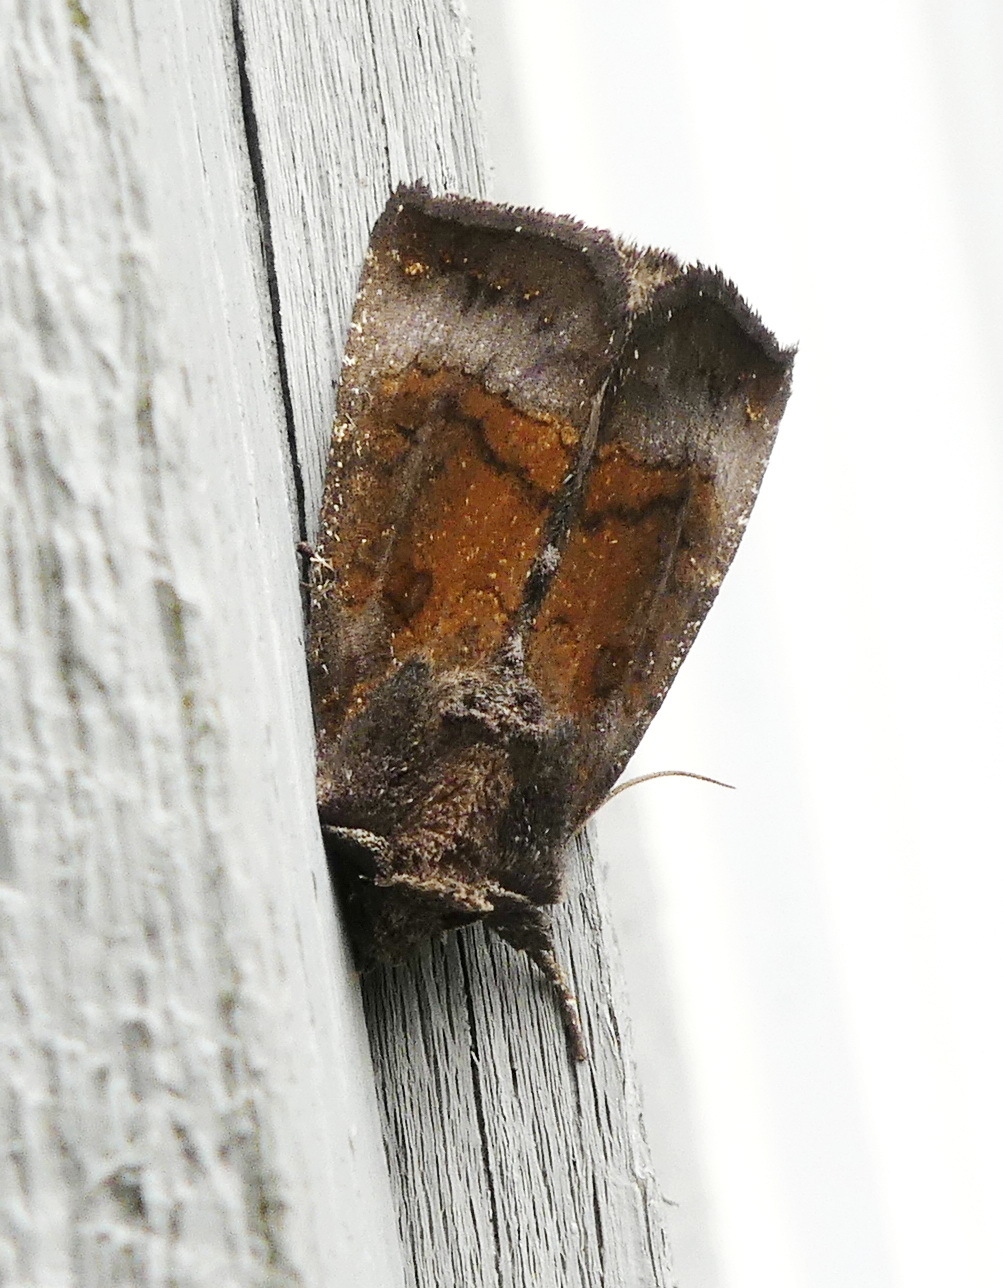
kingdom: Animalia
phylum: Arthropoda
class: Insecta
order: Lepidoptera
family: Noctuidae
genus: Papaipema
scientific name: Papaipema nelita
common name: Coneflower borer moth
